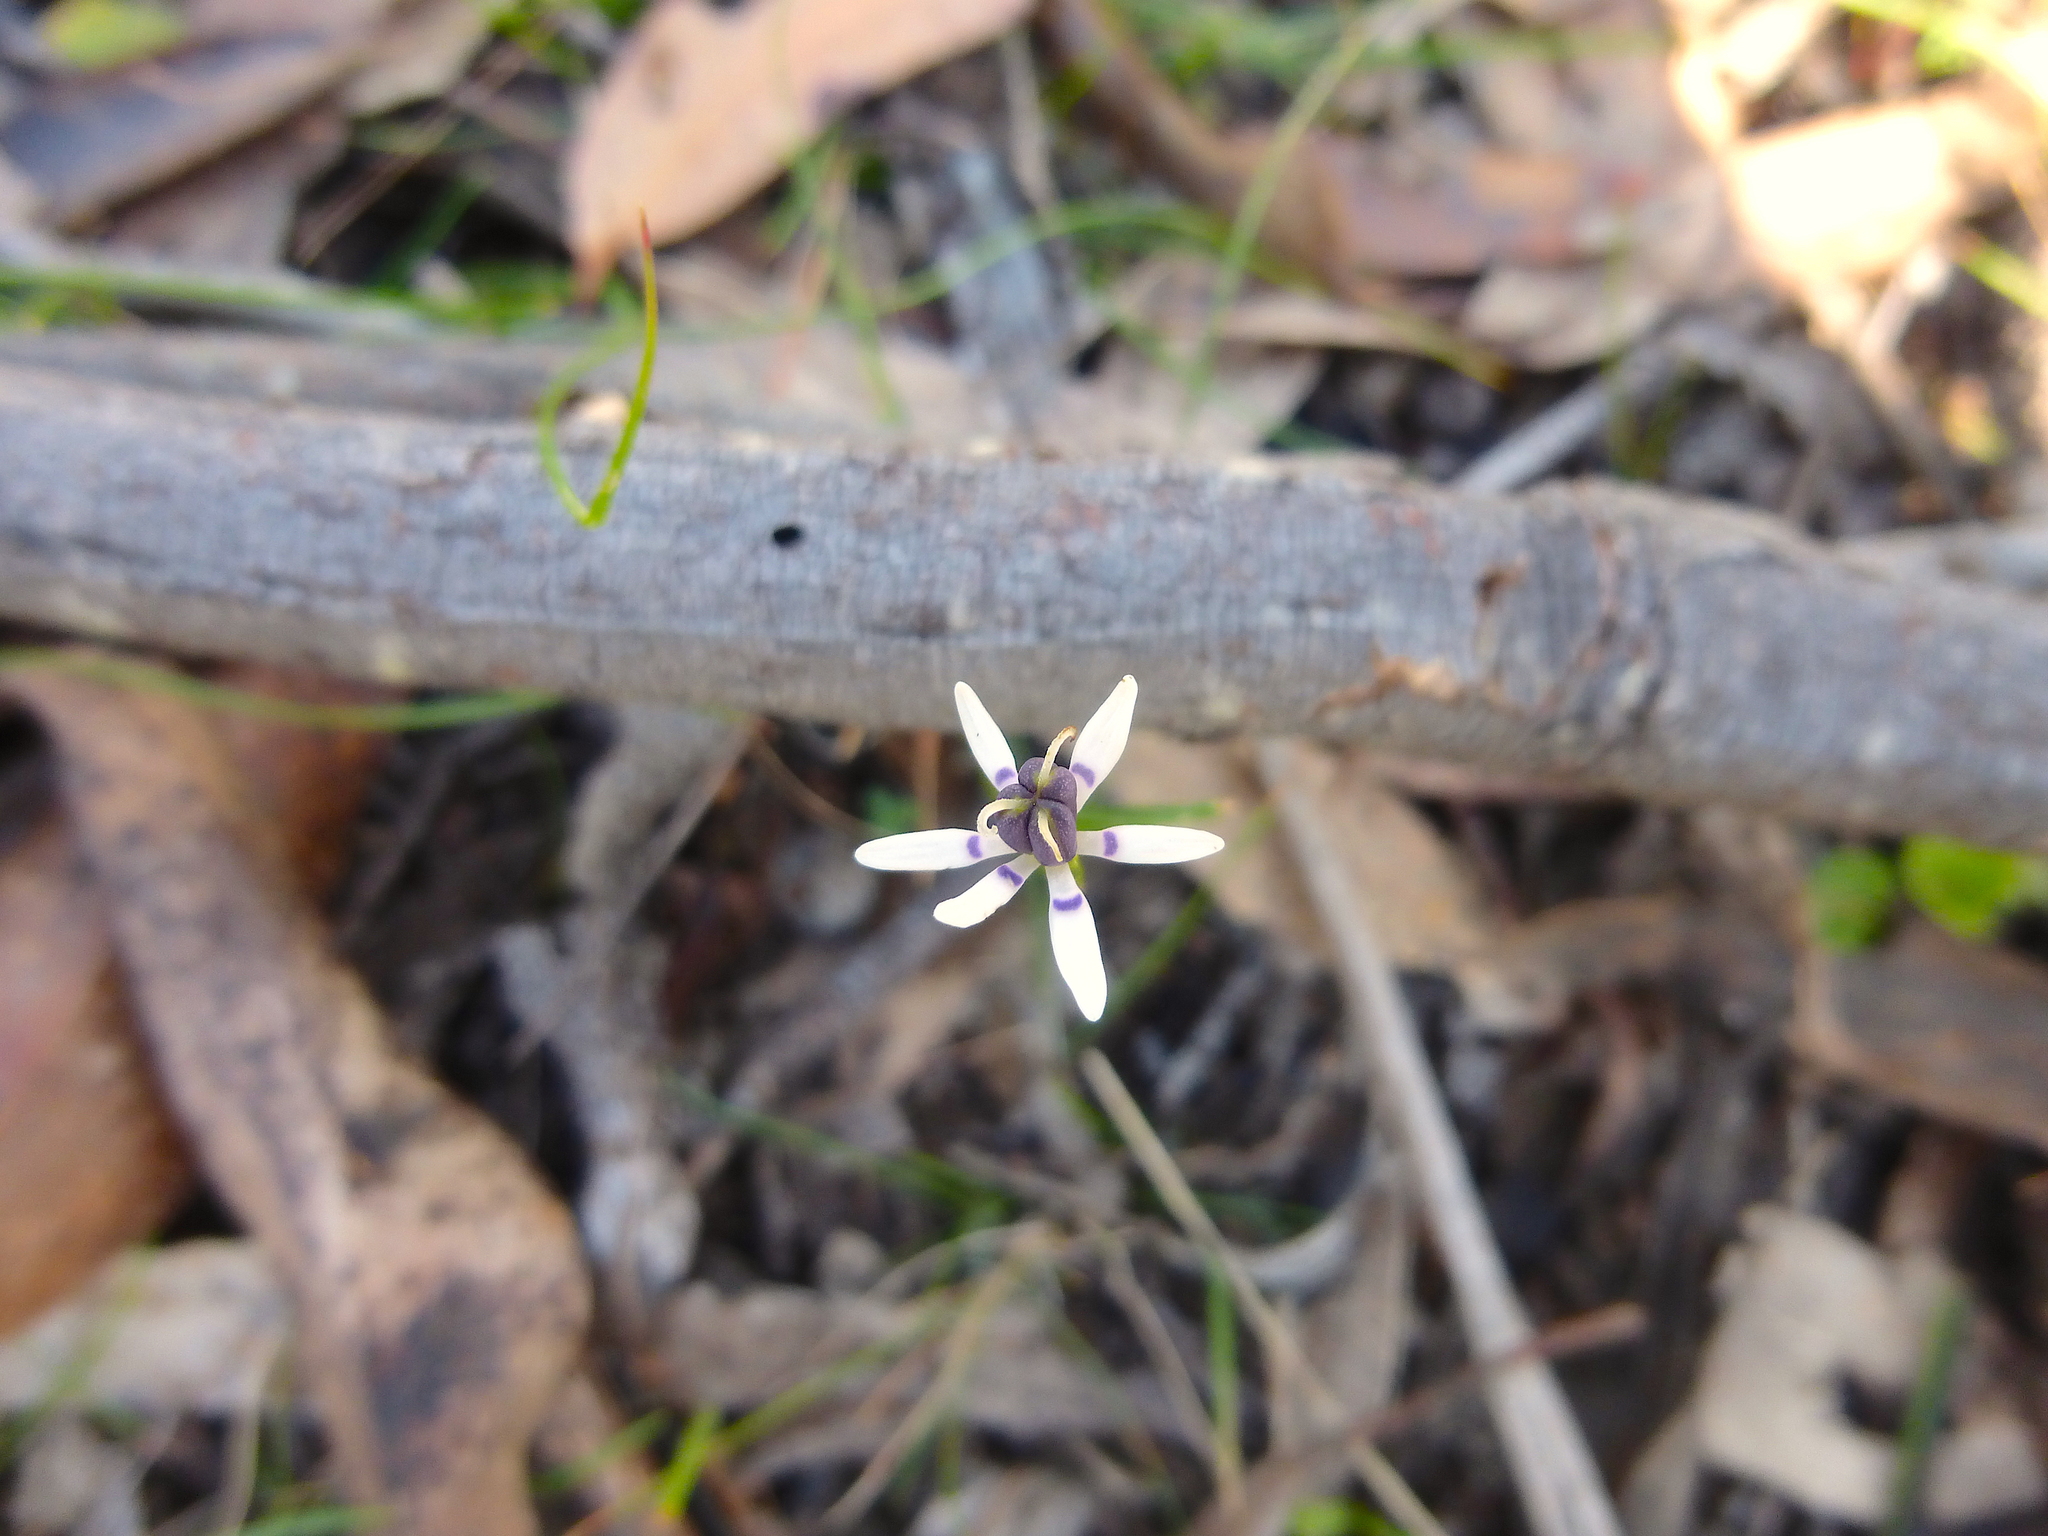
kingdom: Plantae
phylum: Tracheophyta
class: Liliopsida
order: Liliales
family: Colchicaceae
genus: Wurmbea
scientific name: Wurmbea dioica
